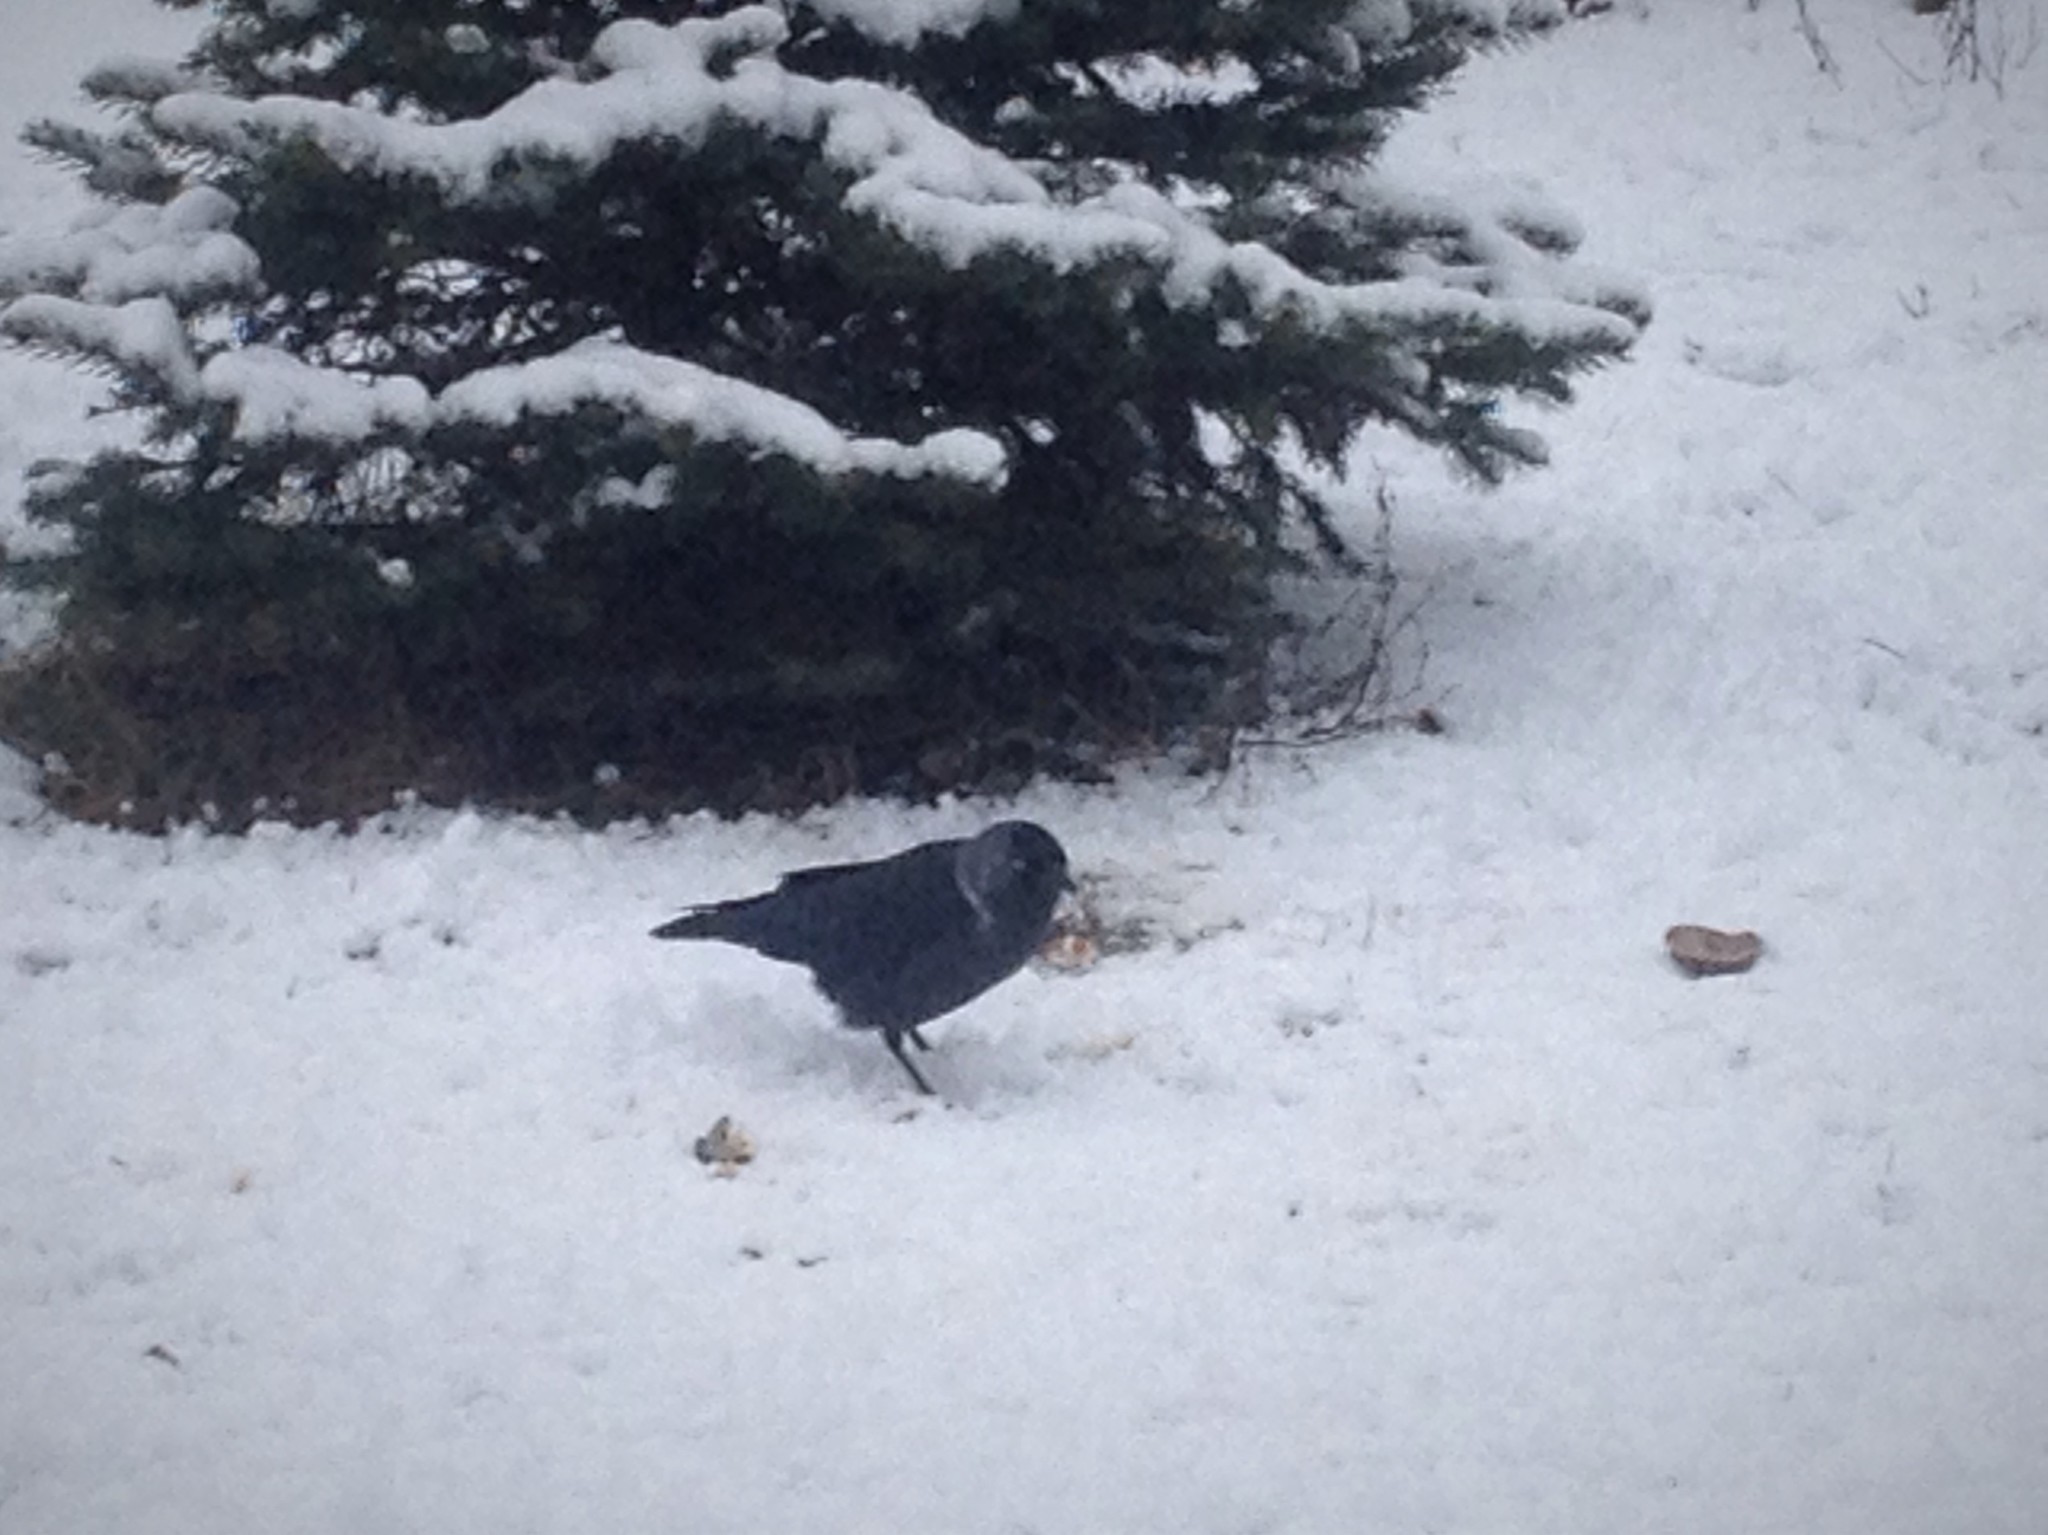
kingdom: Animalia
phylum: Chordata
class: Aves
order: Passeriformes
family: Corvidae
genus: Coloeus
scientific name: Coloeus monedula
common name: Western jackdaw
